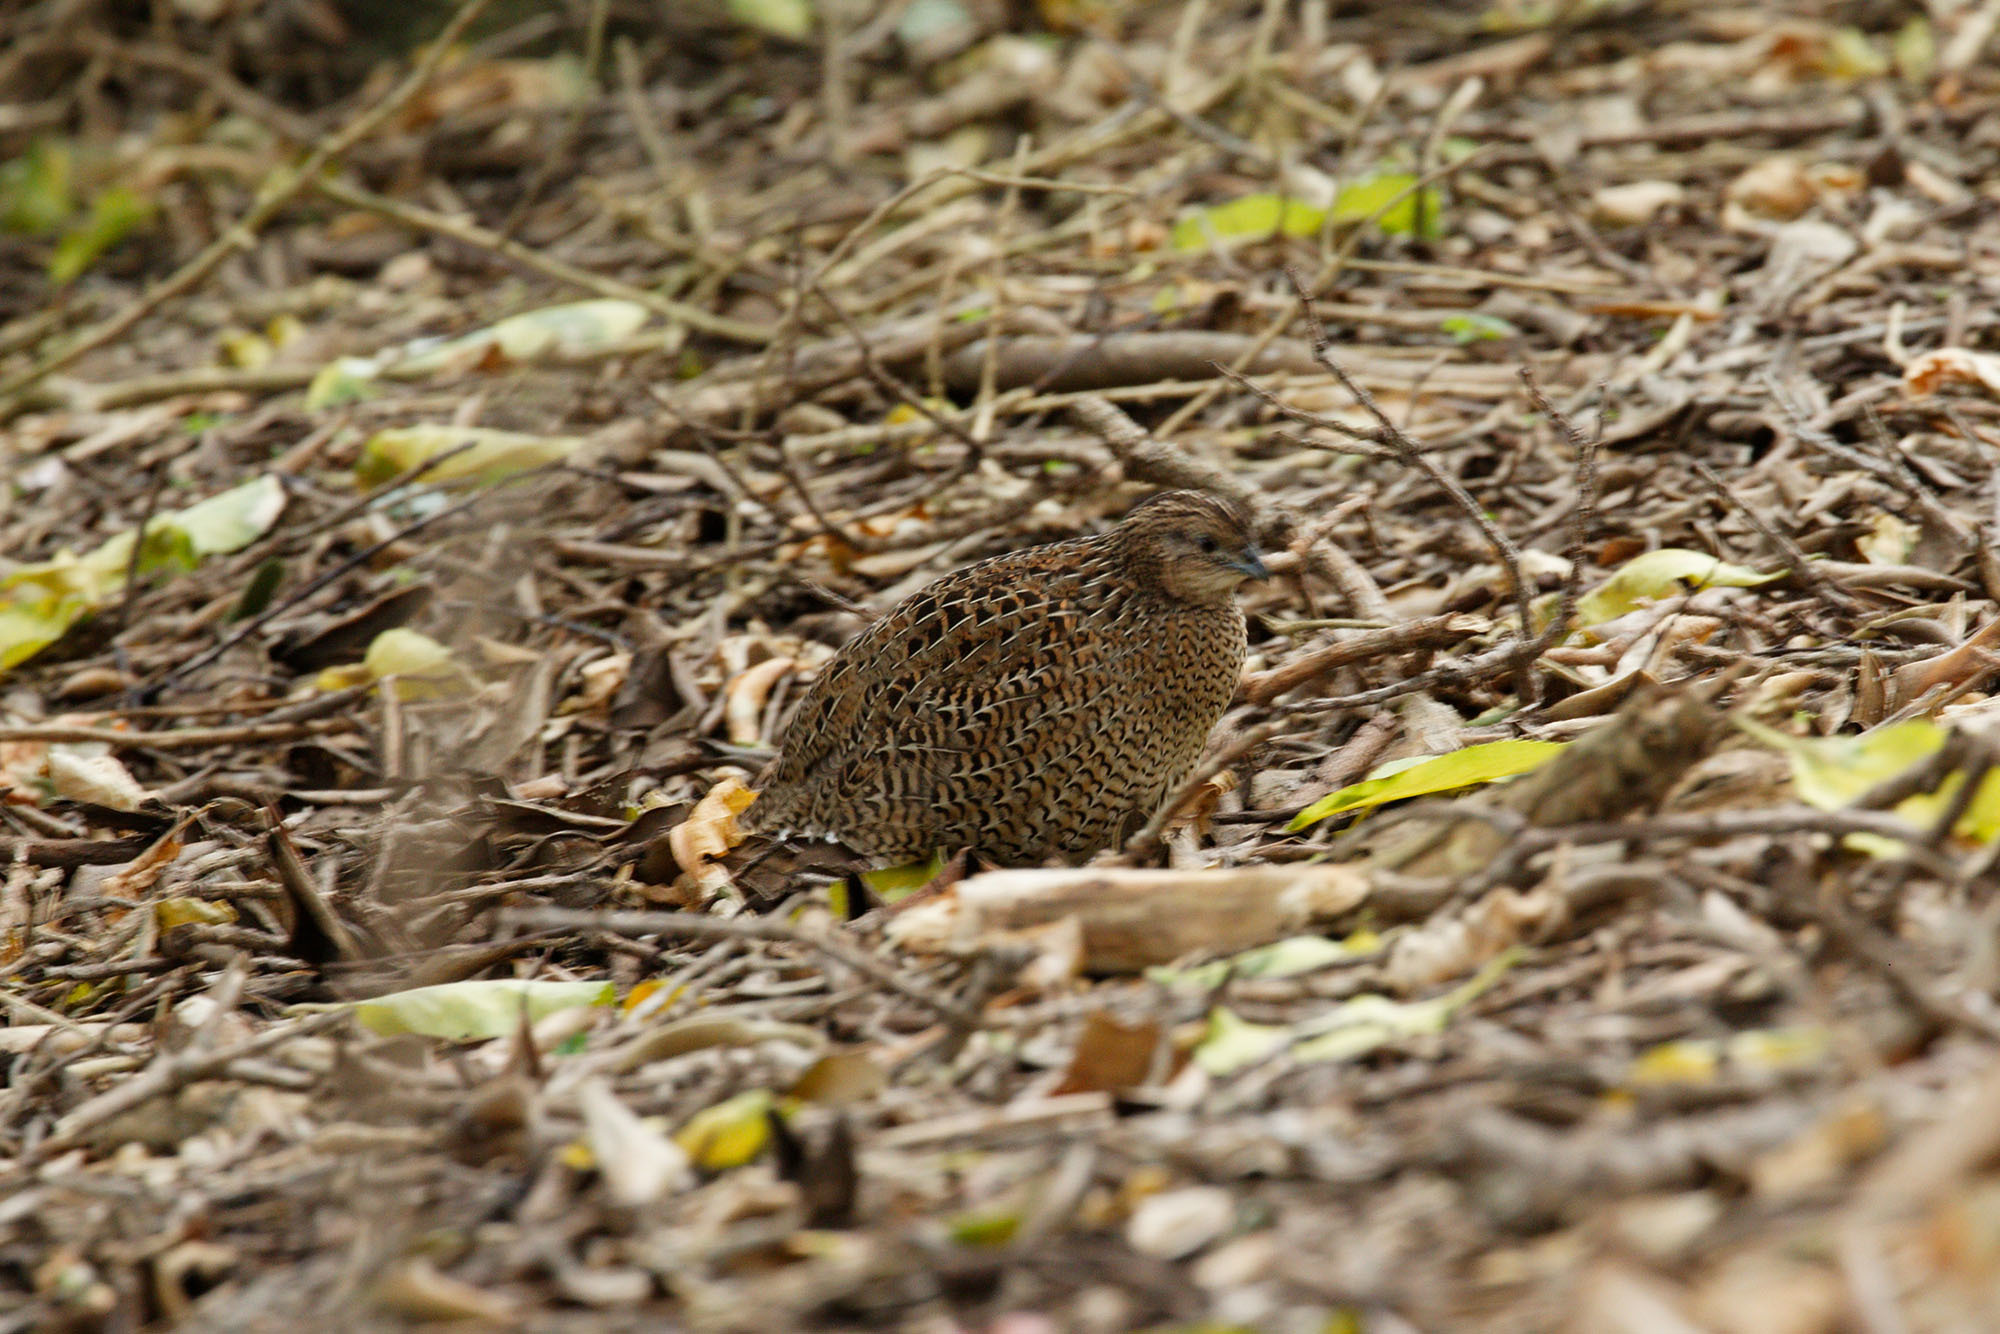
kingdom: Animalia
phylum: Chordata
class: Aves
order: Galliformes
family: Phasianidae
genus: Synoicus
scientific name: Synoicus ypsilophorus
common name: Brown quail
